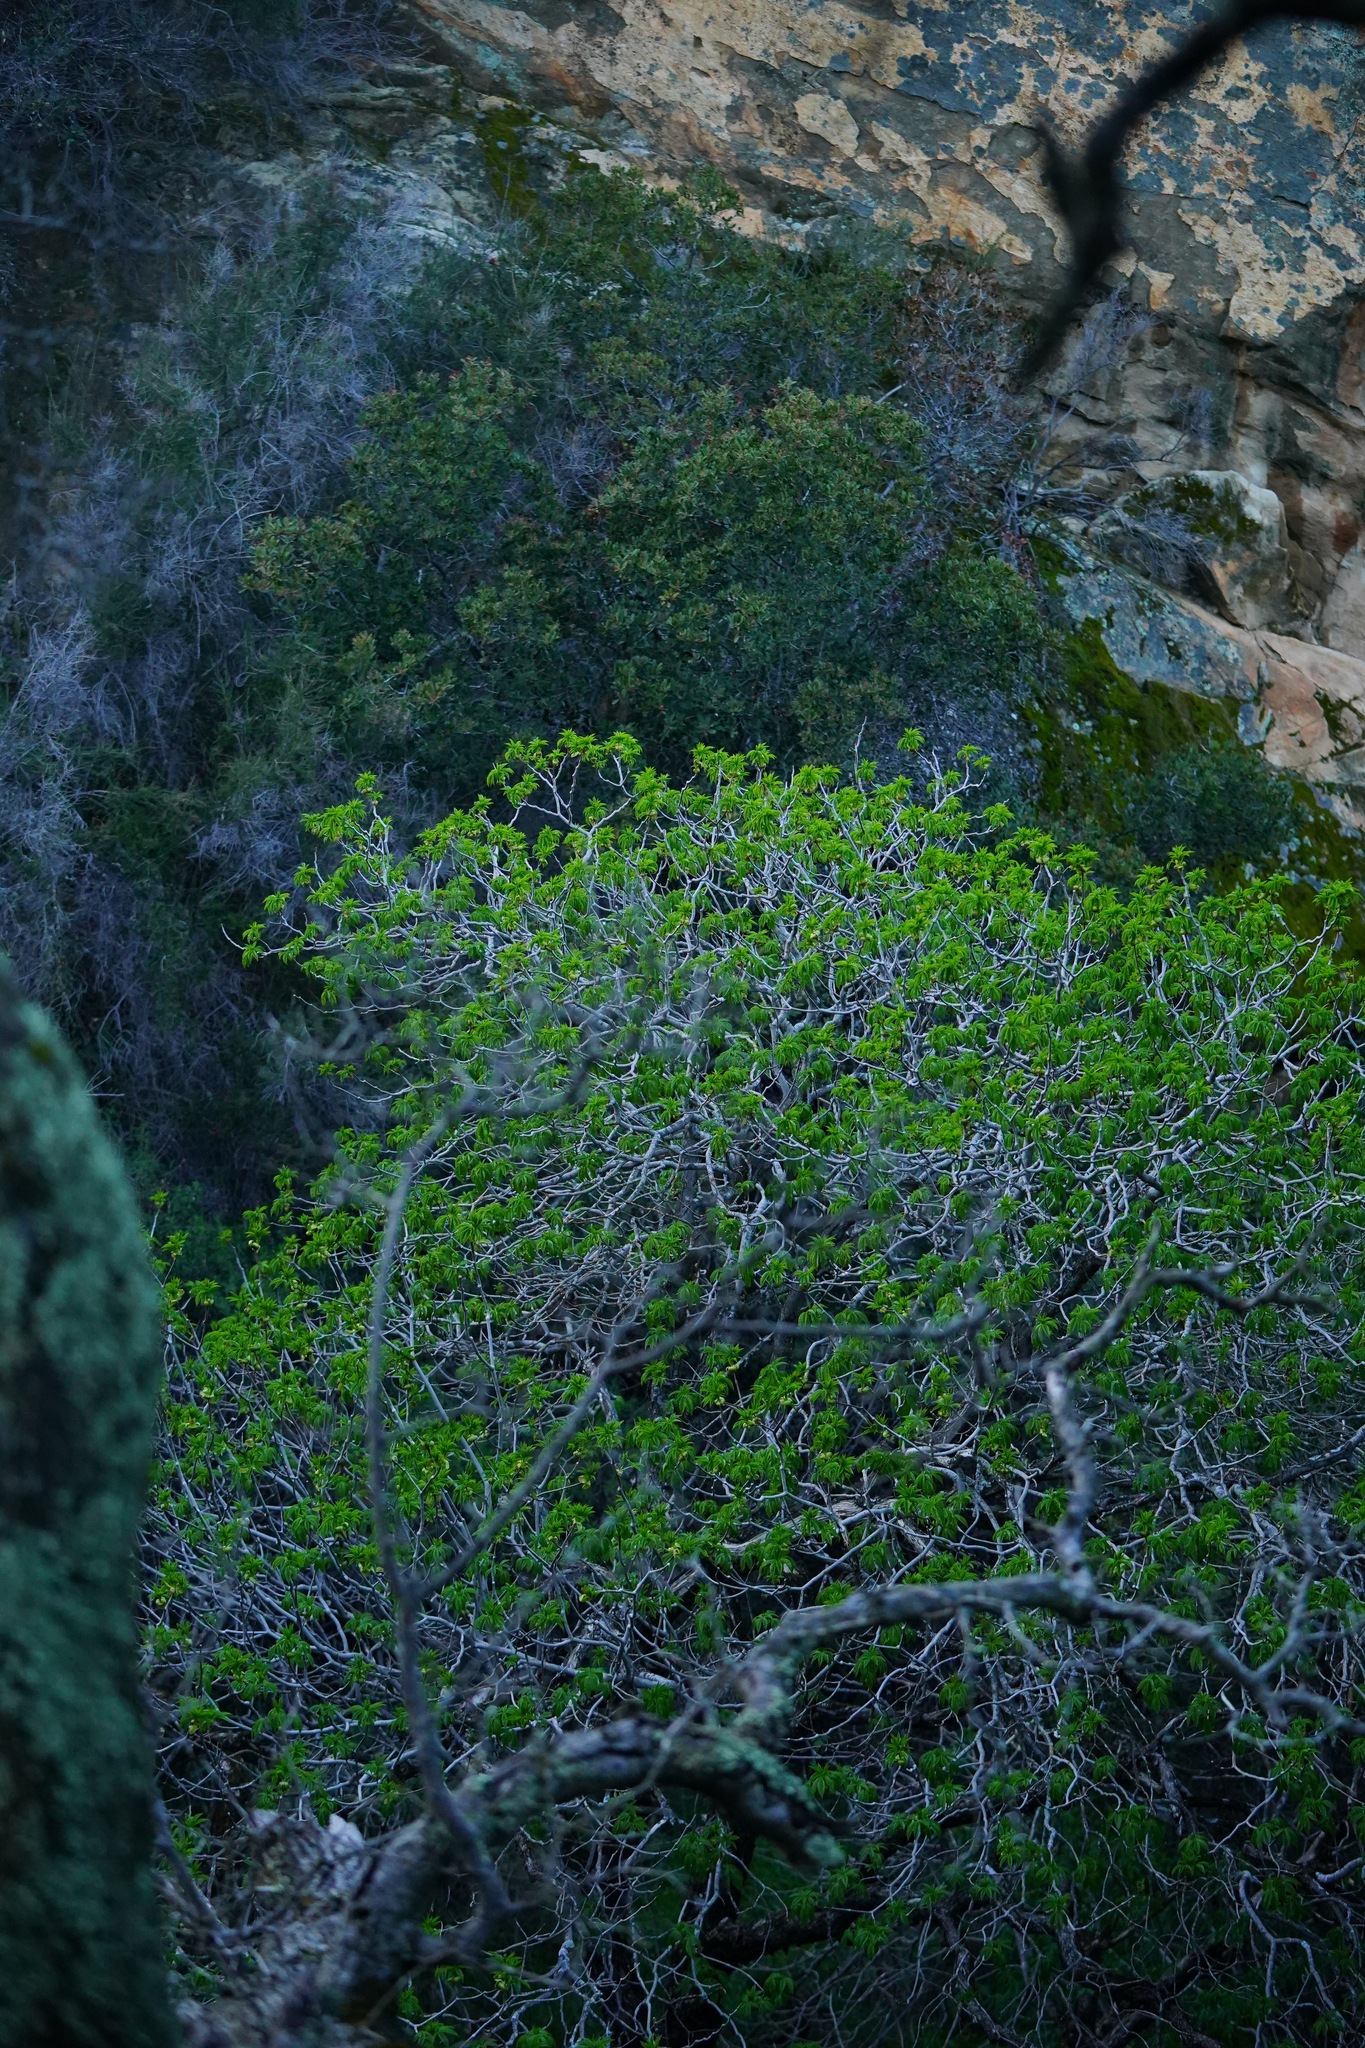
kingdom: Plantae
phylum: Tracheophyta
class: Magnoliopsida
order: Sapindales
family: Sapindaceae
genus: Aesculus
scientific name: Aesculus californica
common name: California buckeye
